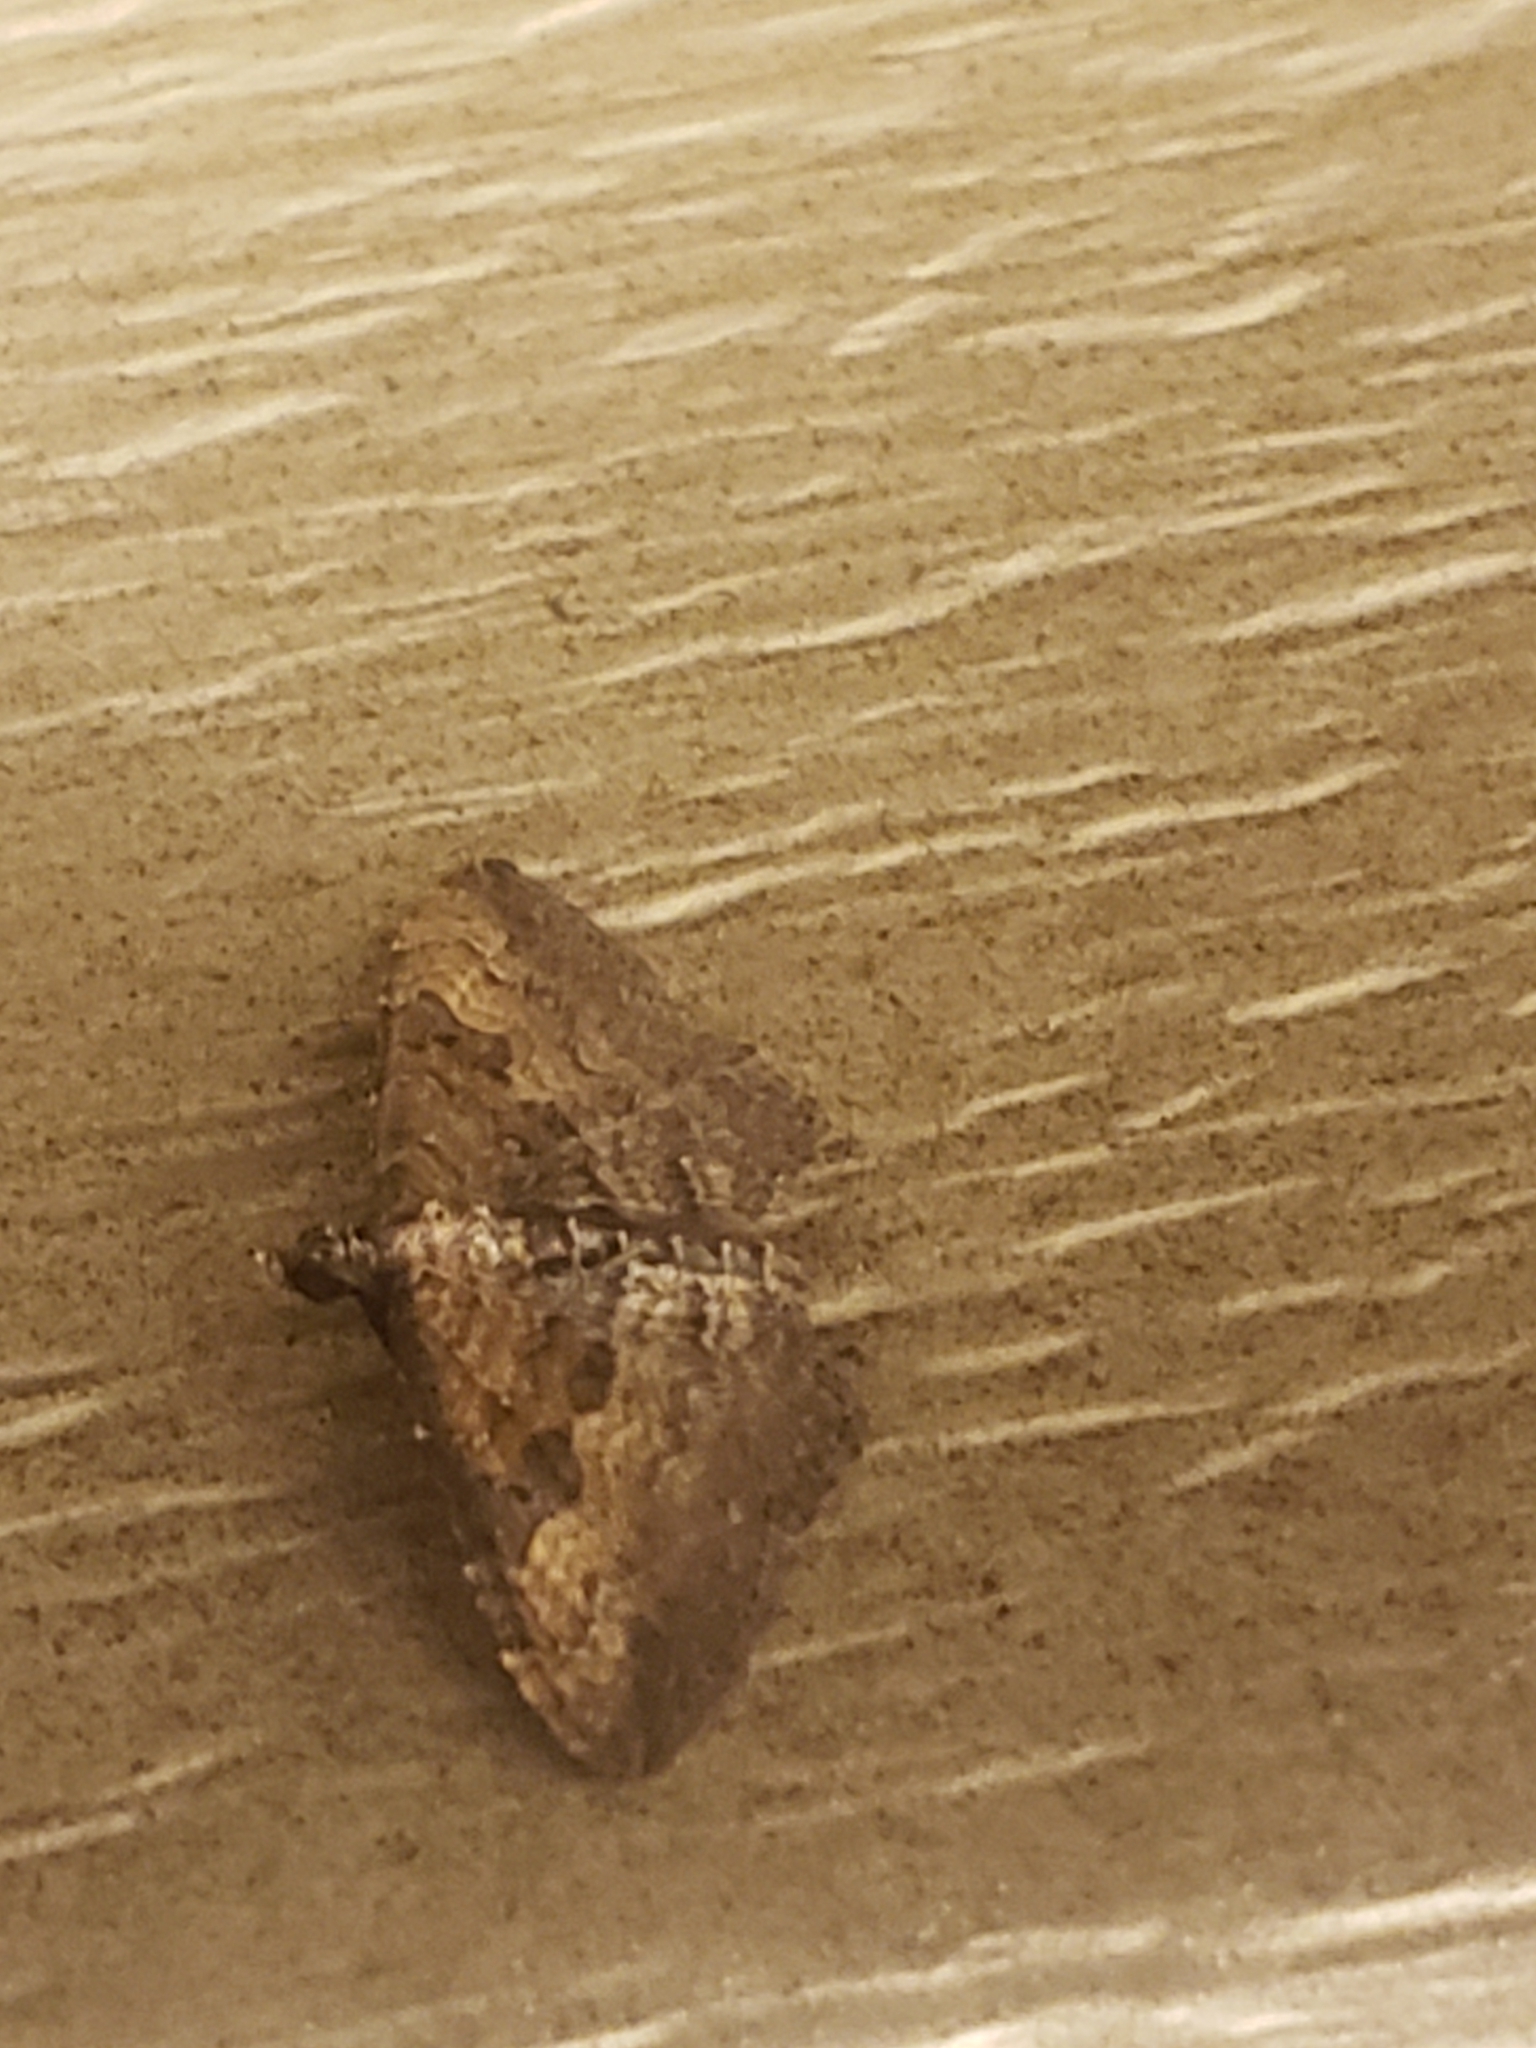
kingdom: Animalia
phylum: Arthropoda
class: Insecta
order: Lepidoptera
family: Geometridae
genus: Orthonama
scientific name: Orthonama obstipata
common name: The gem
